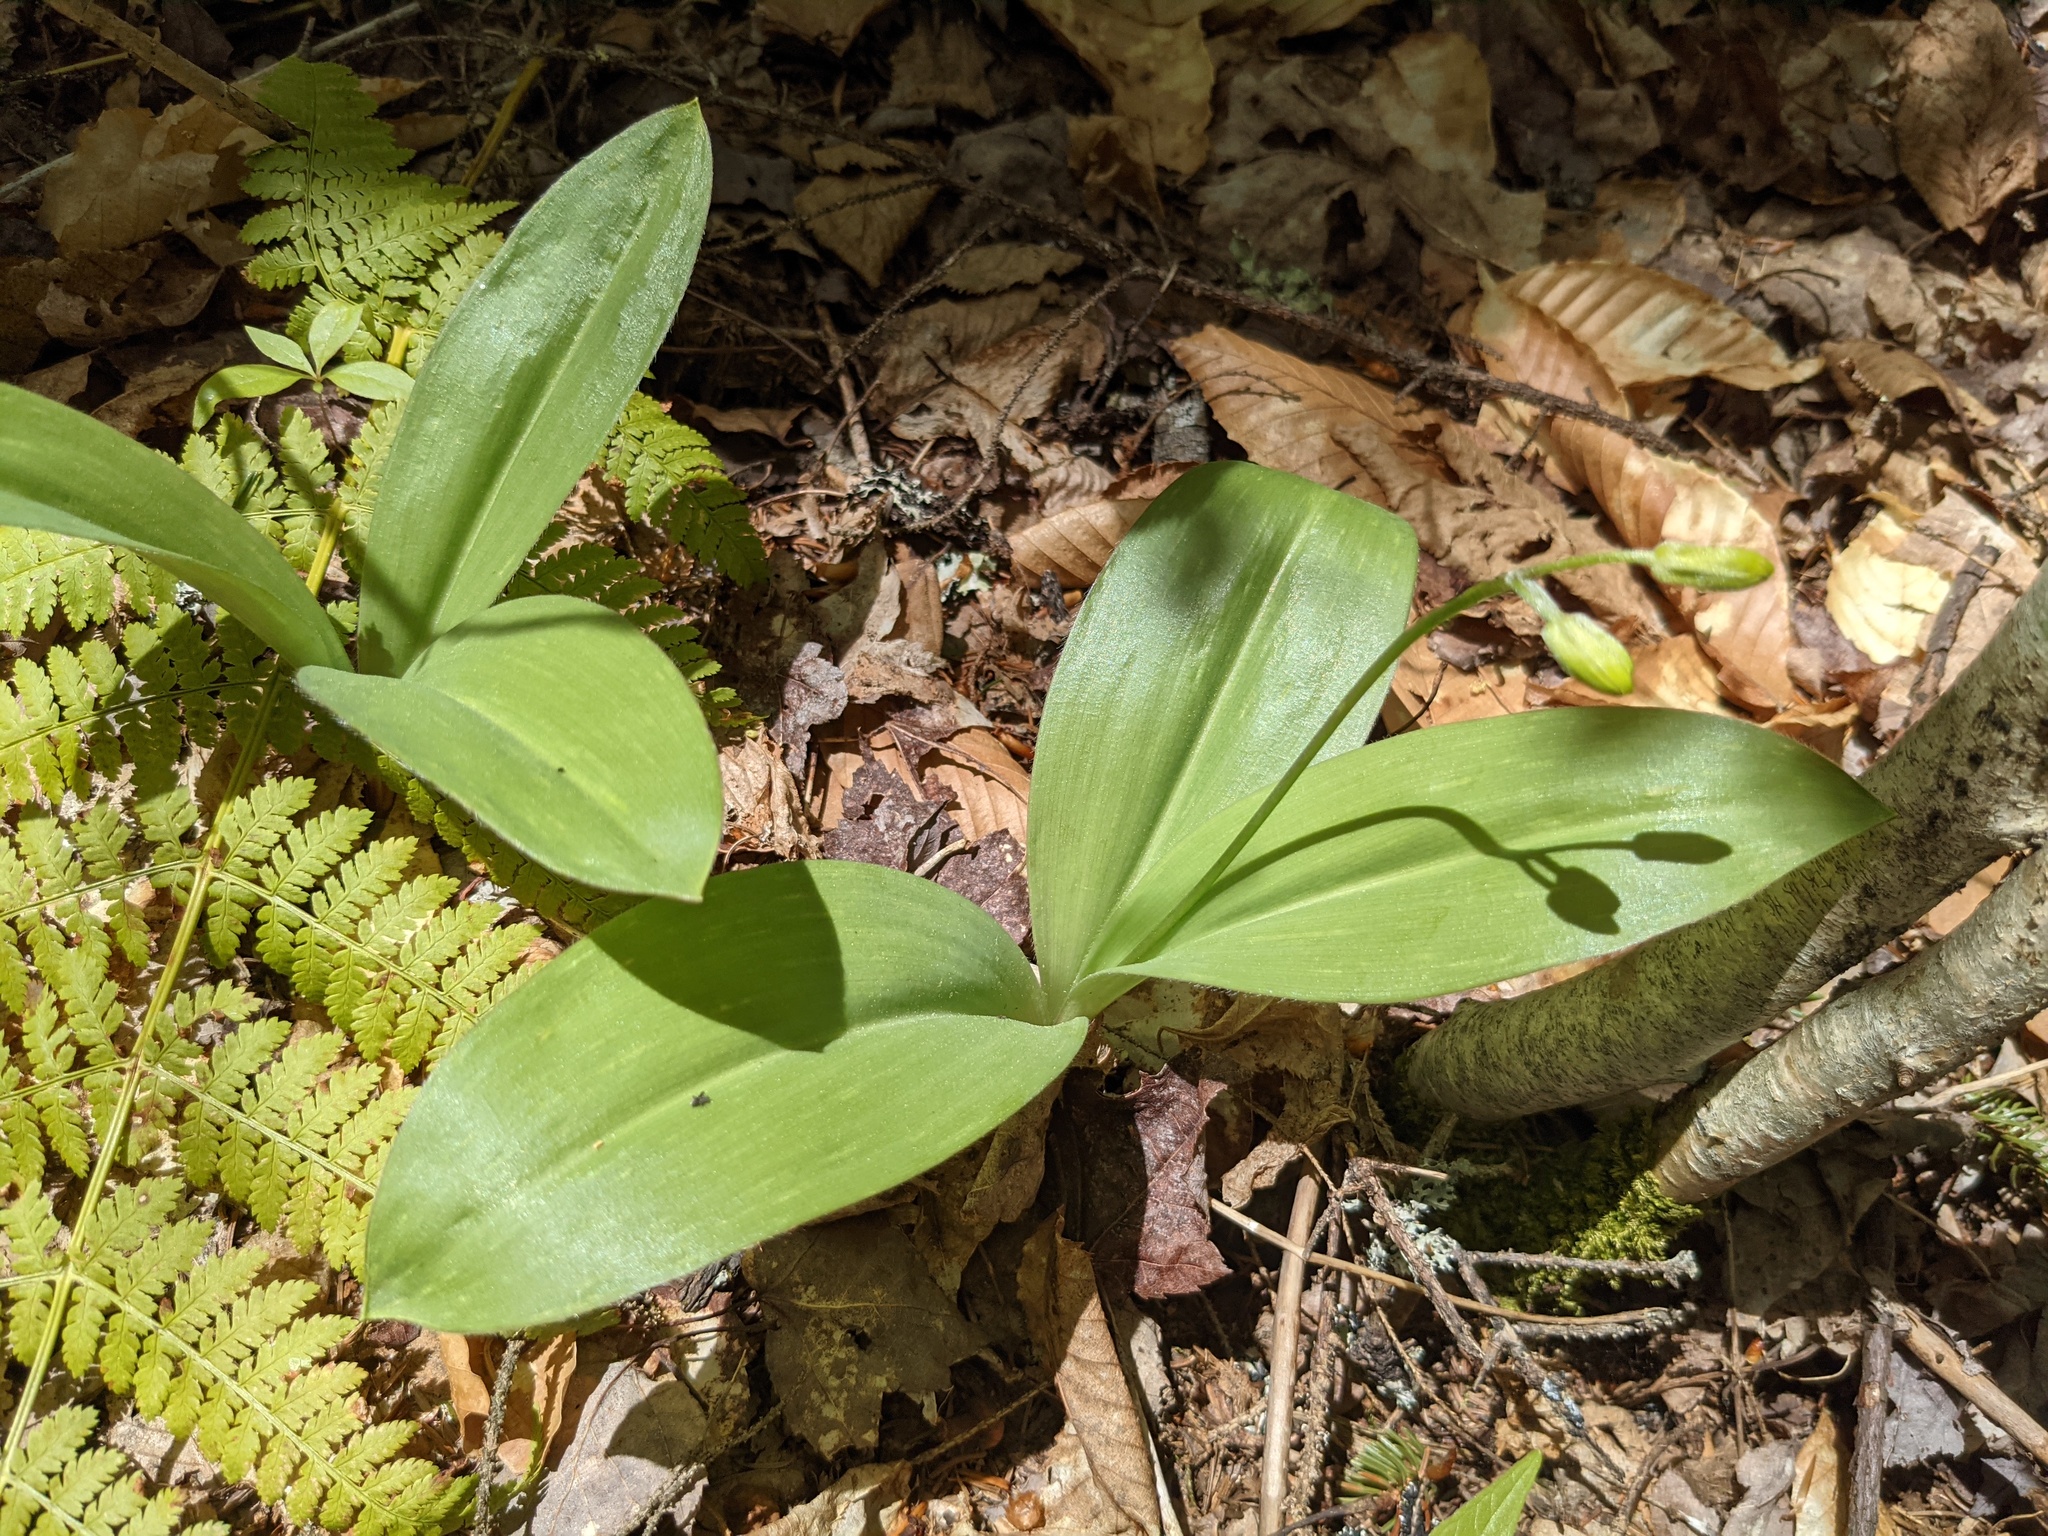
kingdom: Plantae
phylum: Tracheophyta
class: Liliopsida
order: Liliales
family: Liliaceae
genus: Clintonia
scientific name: Clintonia borealis
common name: Yellow clintonia
